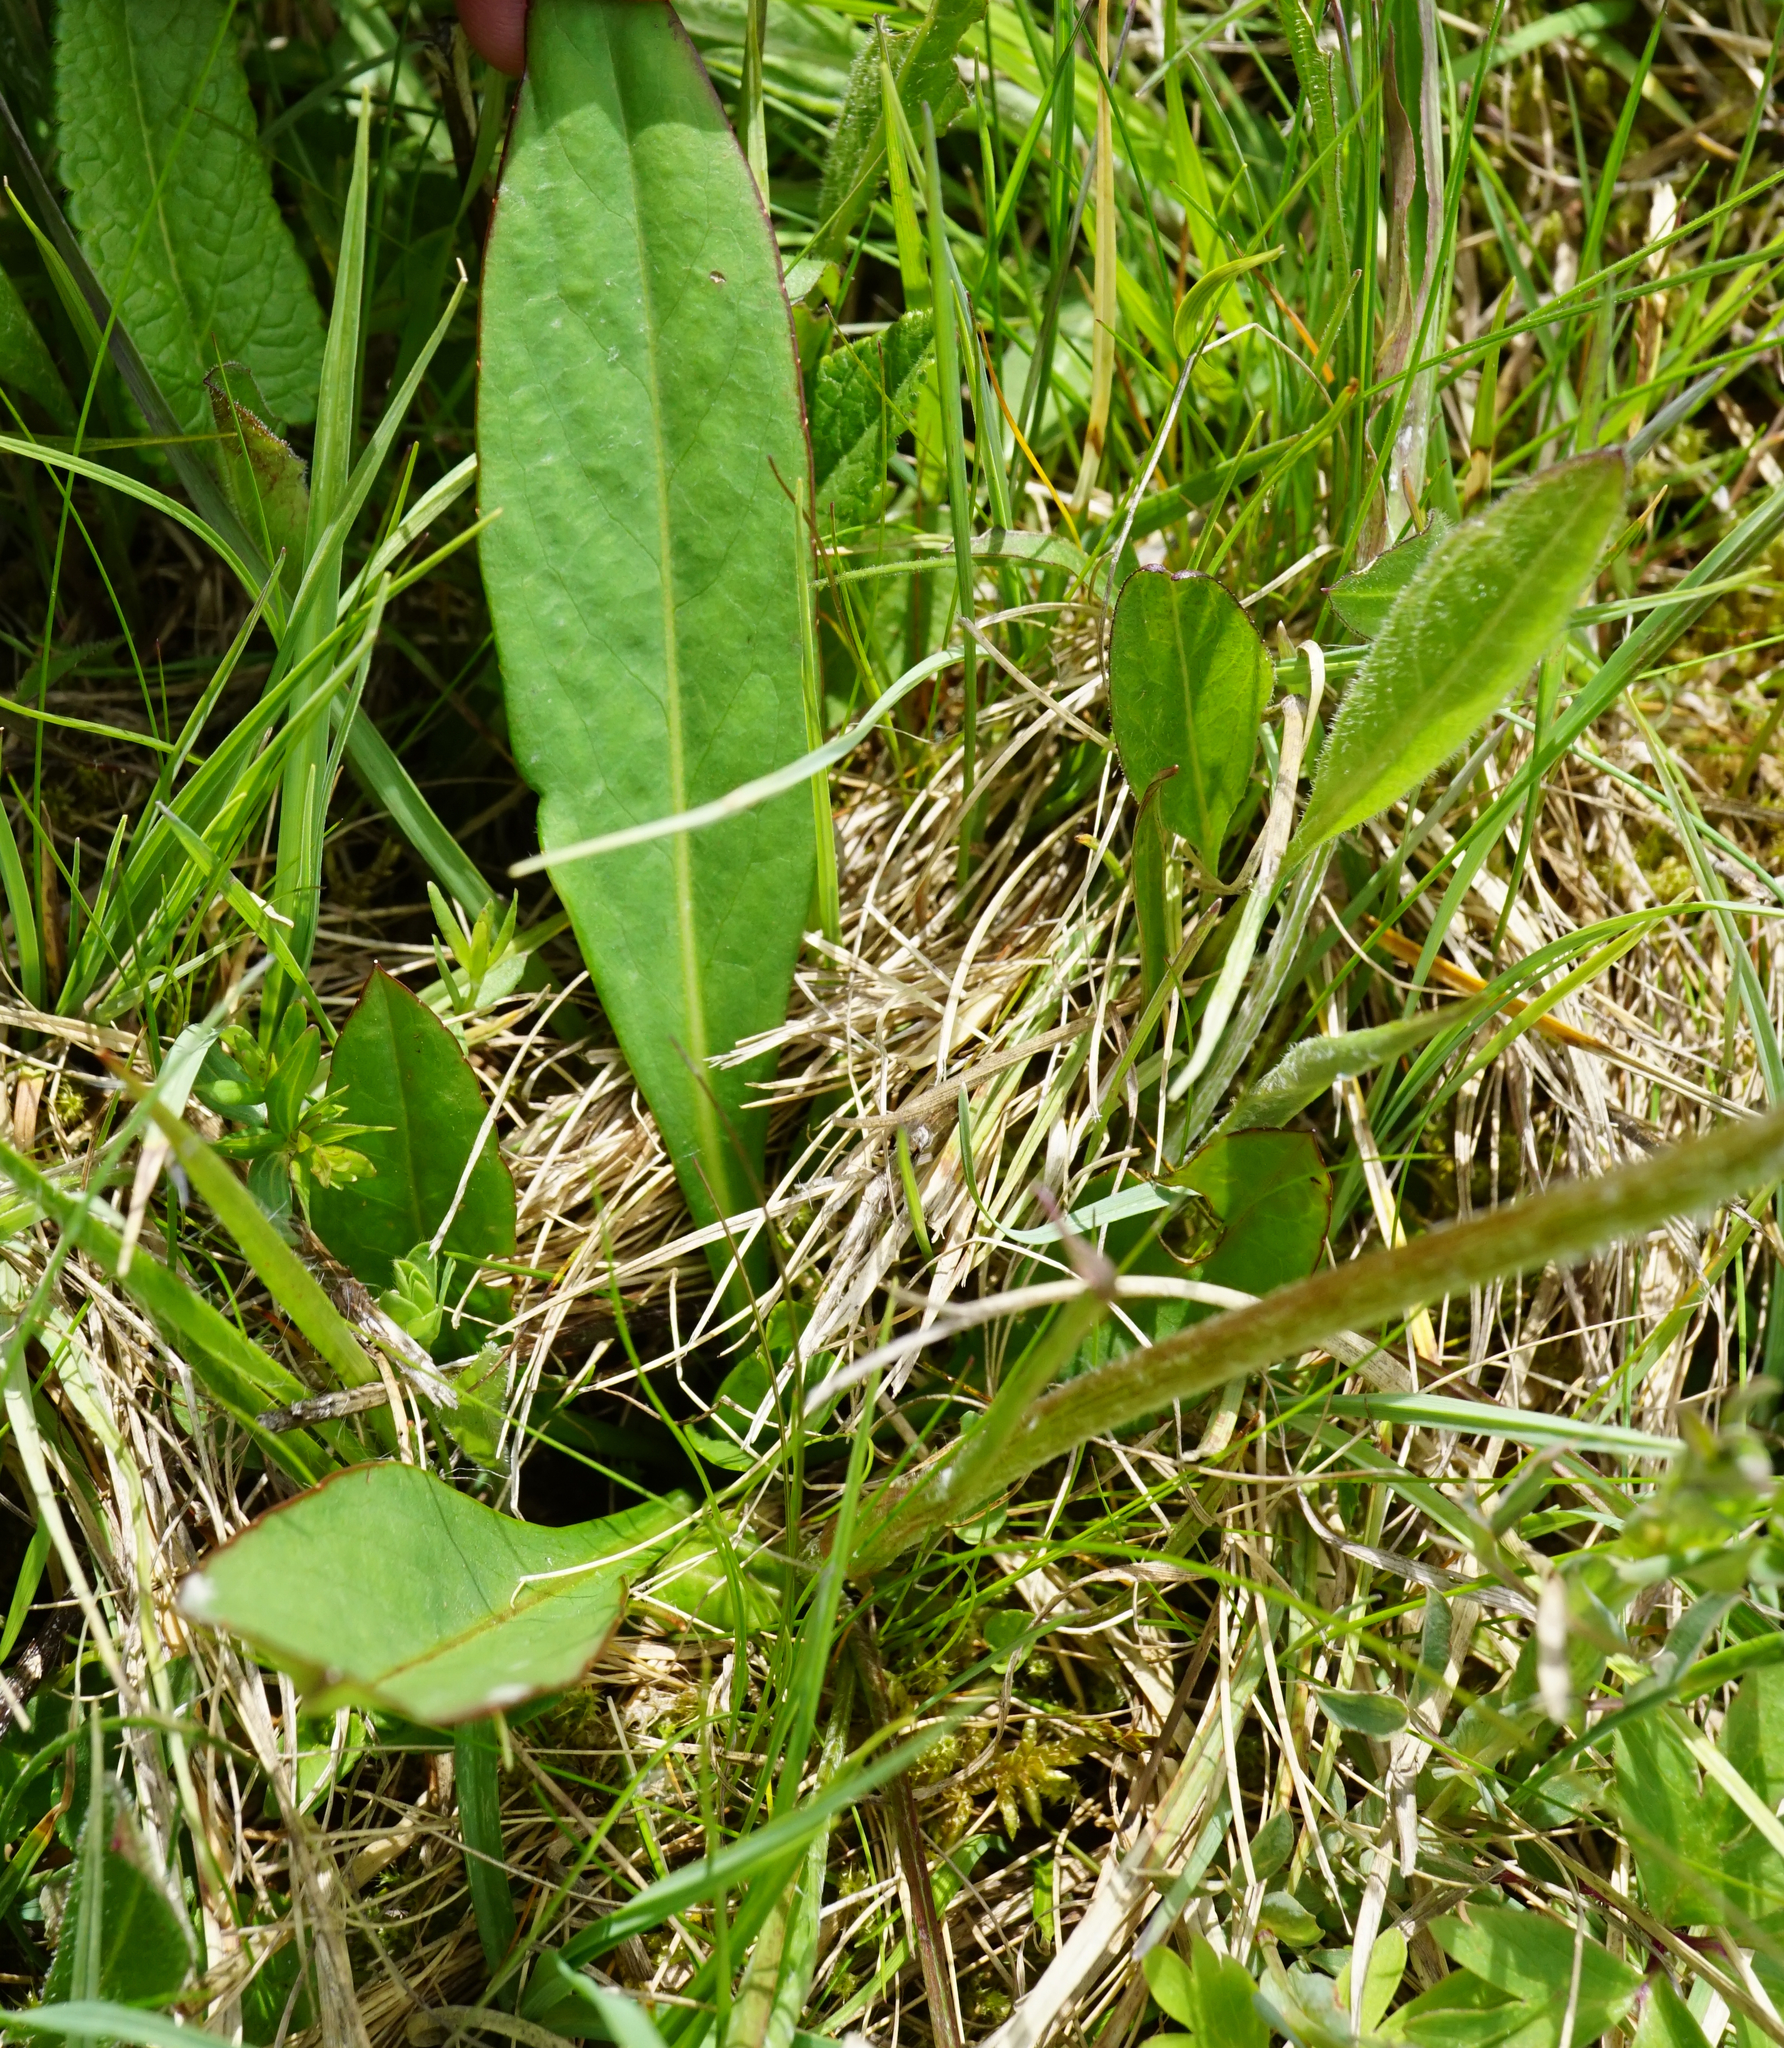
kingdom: Plantae
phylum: Tracheophyta
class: Magnoliopsida
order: Dipsacales
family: Caprifoliaceae
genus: Succisa
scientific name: Succisa pratensis
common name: Devil's-bit
